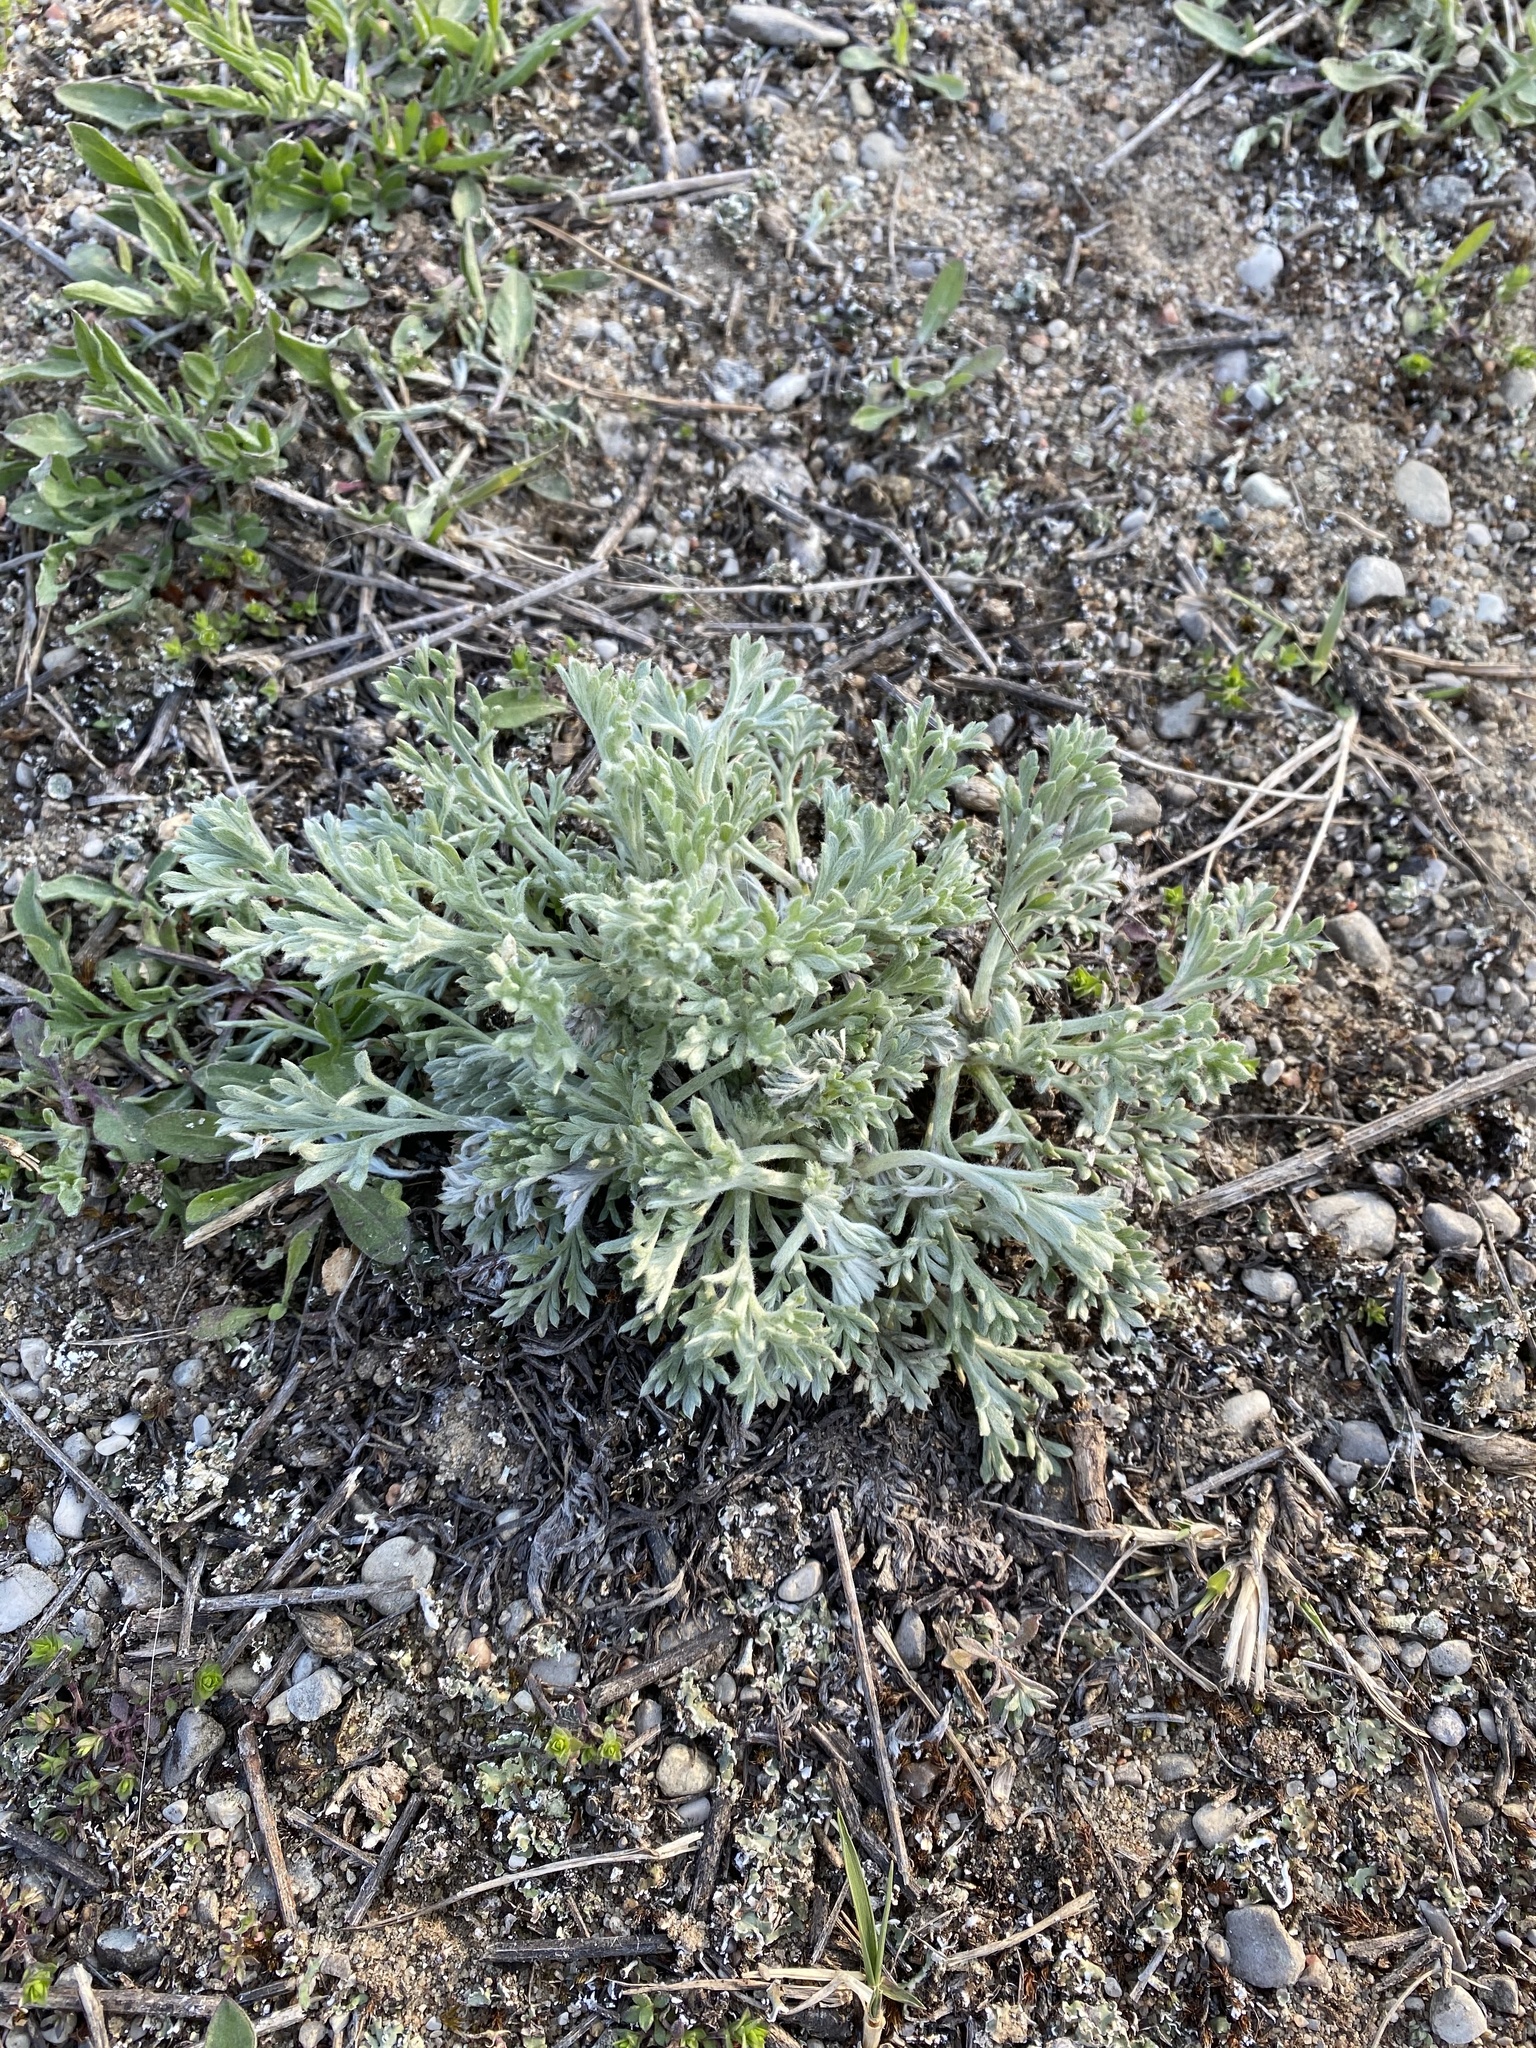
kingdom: Plantae
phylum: Tracheophyta
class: Magnoliopsida
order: Asterales
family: Asteraceae
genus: Artemisia
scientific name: Artemisia campestris
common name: Field wormwood
